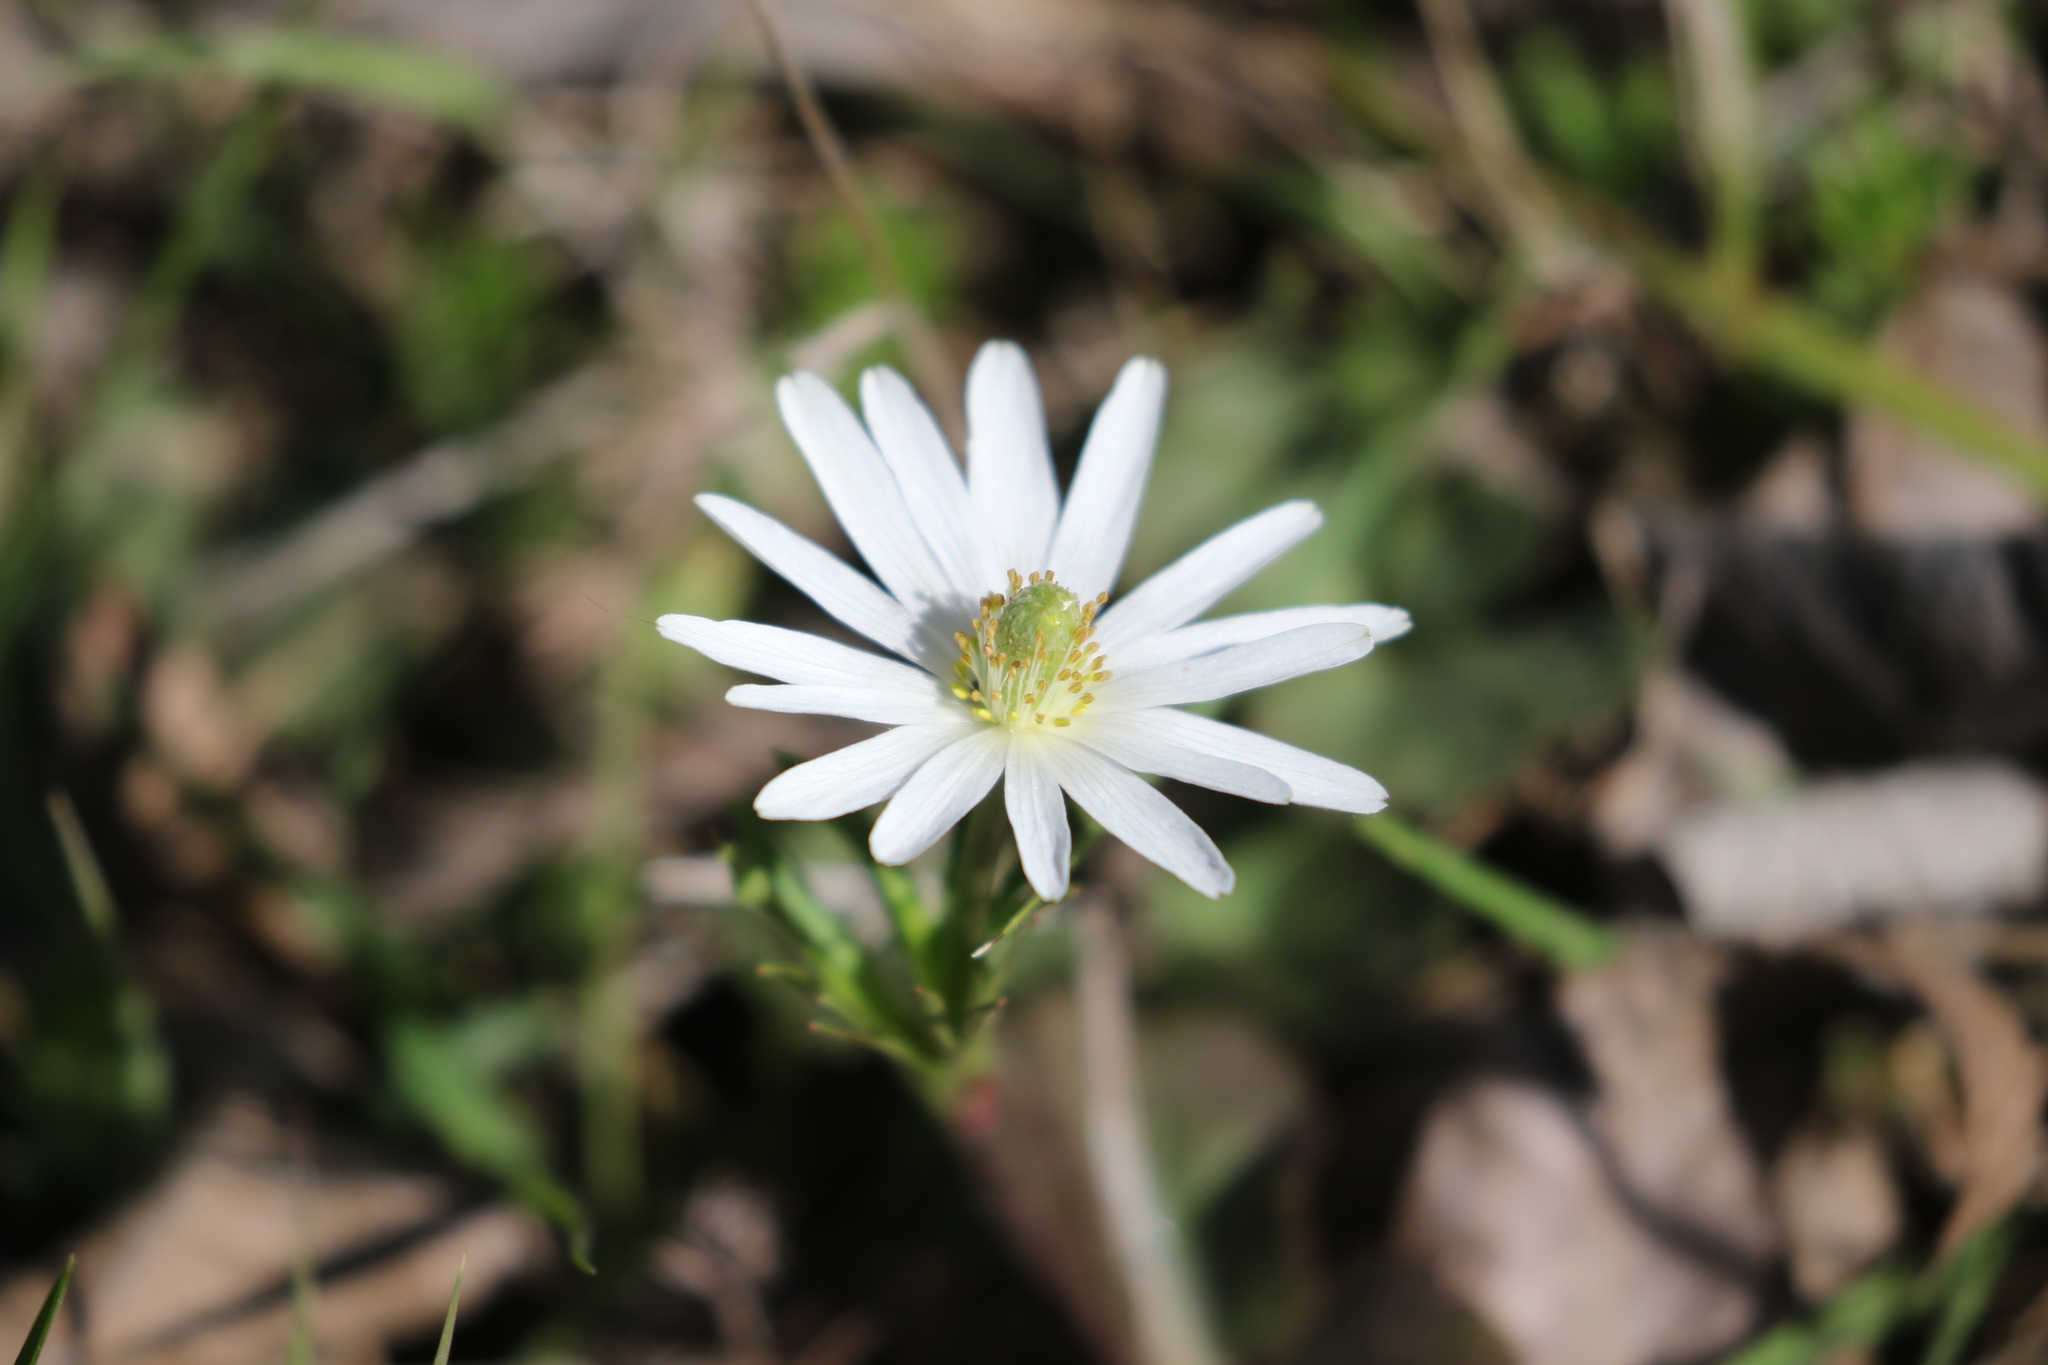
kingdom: Plantae
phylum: Tracheophyta
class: Magnoliopsida
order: Ranunculales
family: Ranunculaceae
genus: Anemone
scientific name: Anemone berlandieri
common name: Ten-petal anemone
